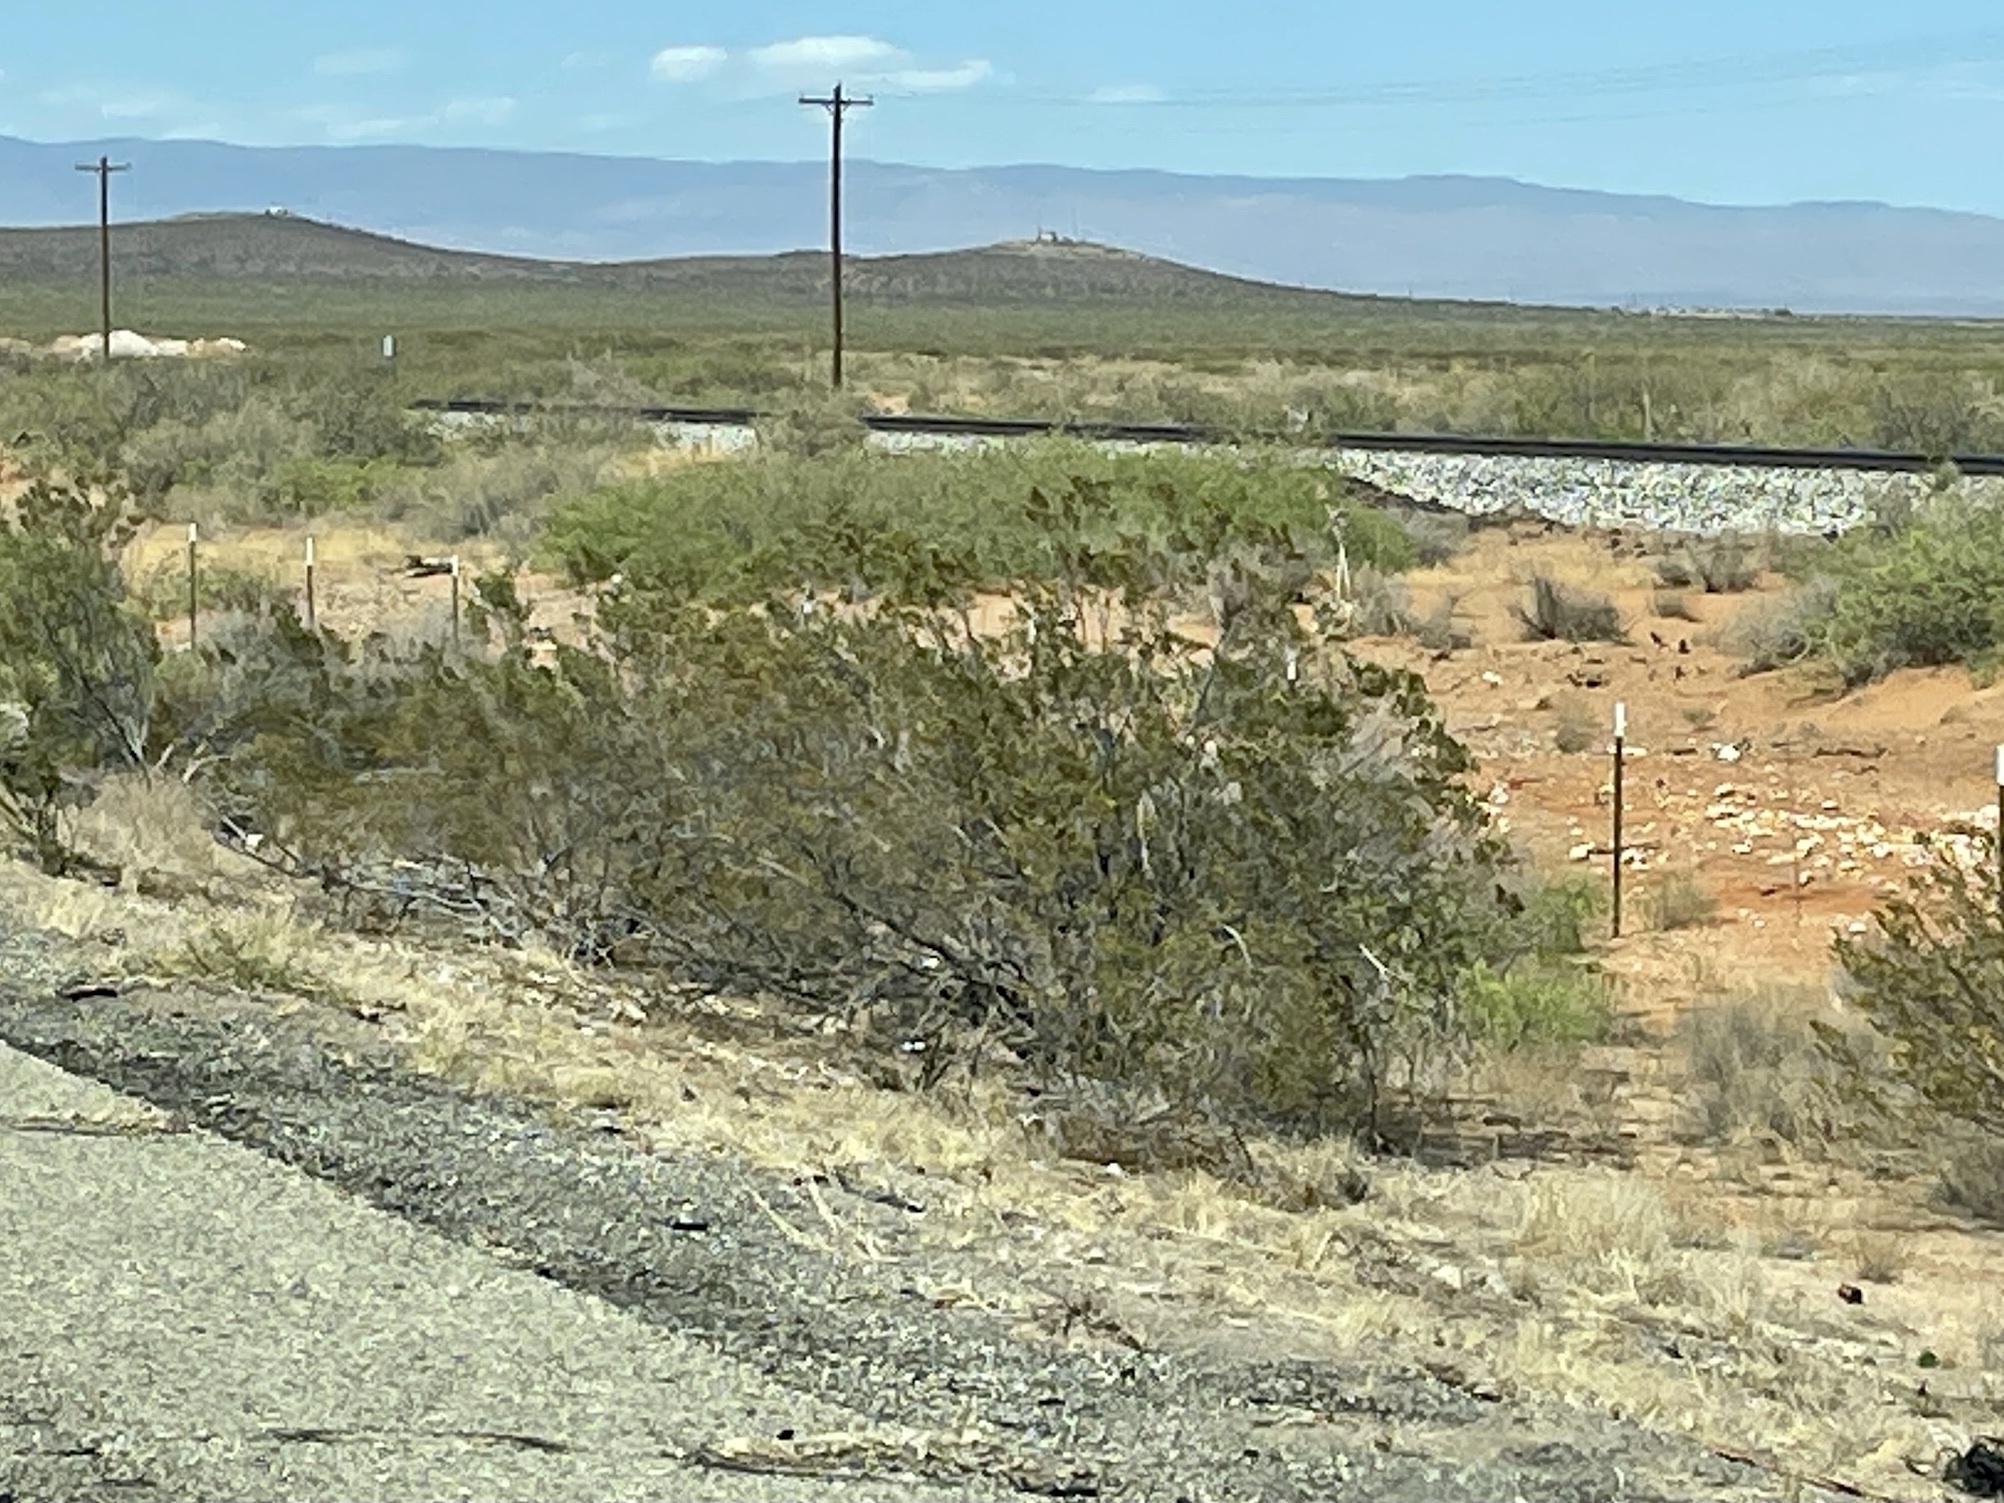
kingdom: Plantae
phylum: Tracheophyta
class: Magnoliopsida
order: Zygophyllales
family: Zygophyllaceae
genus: Larrea
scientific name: Larrea tridentata
